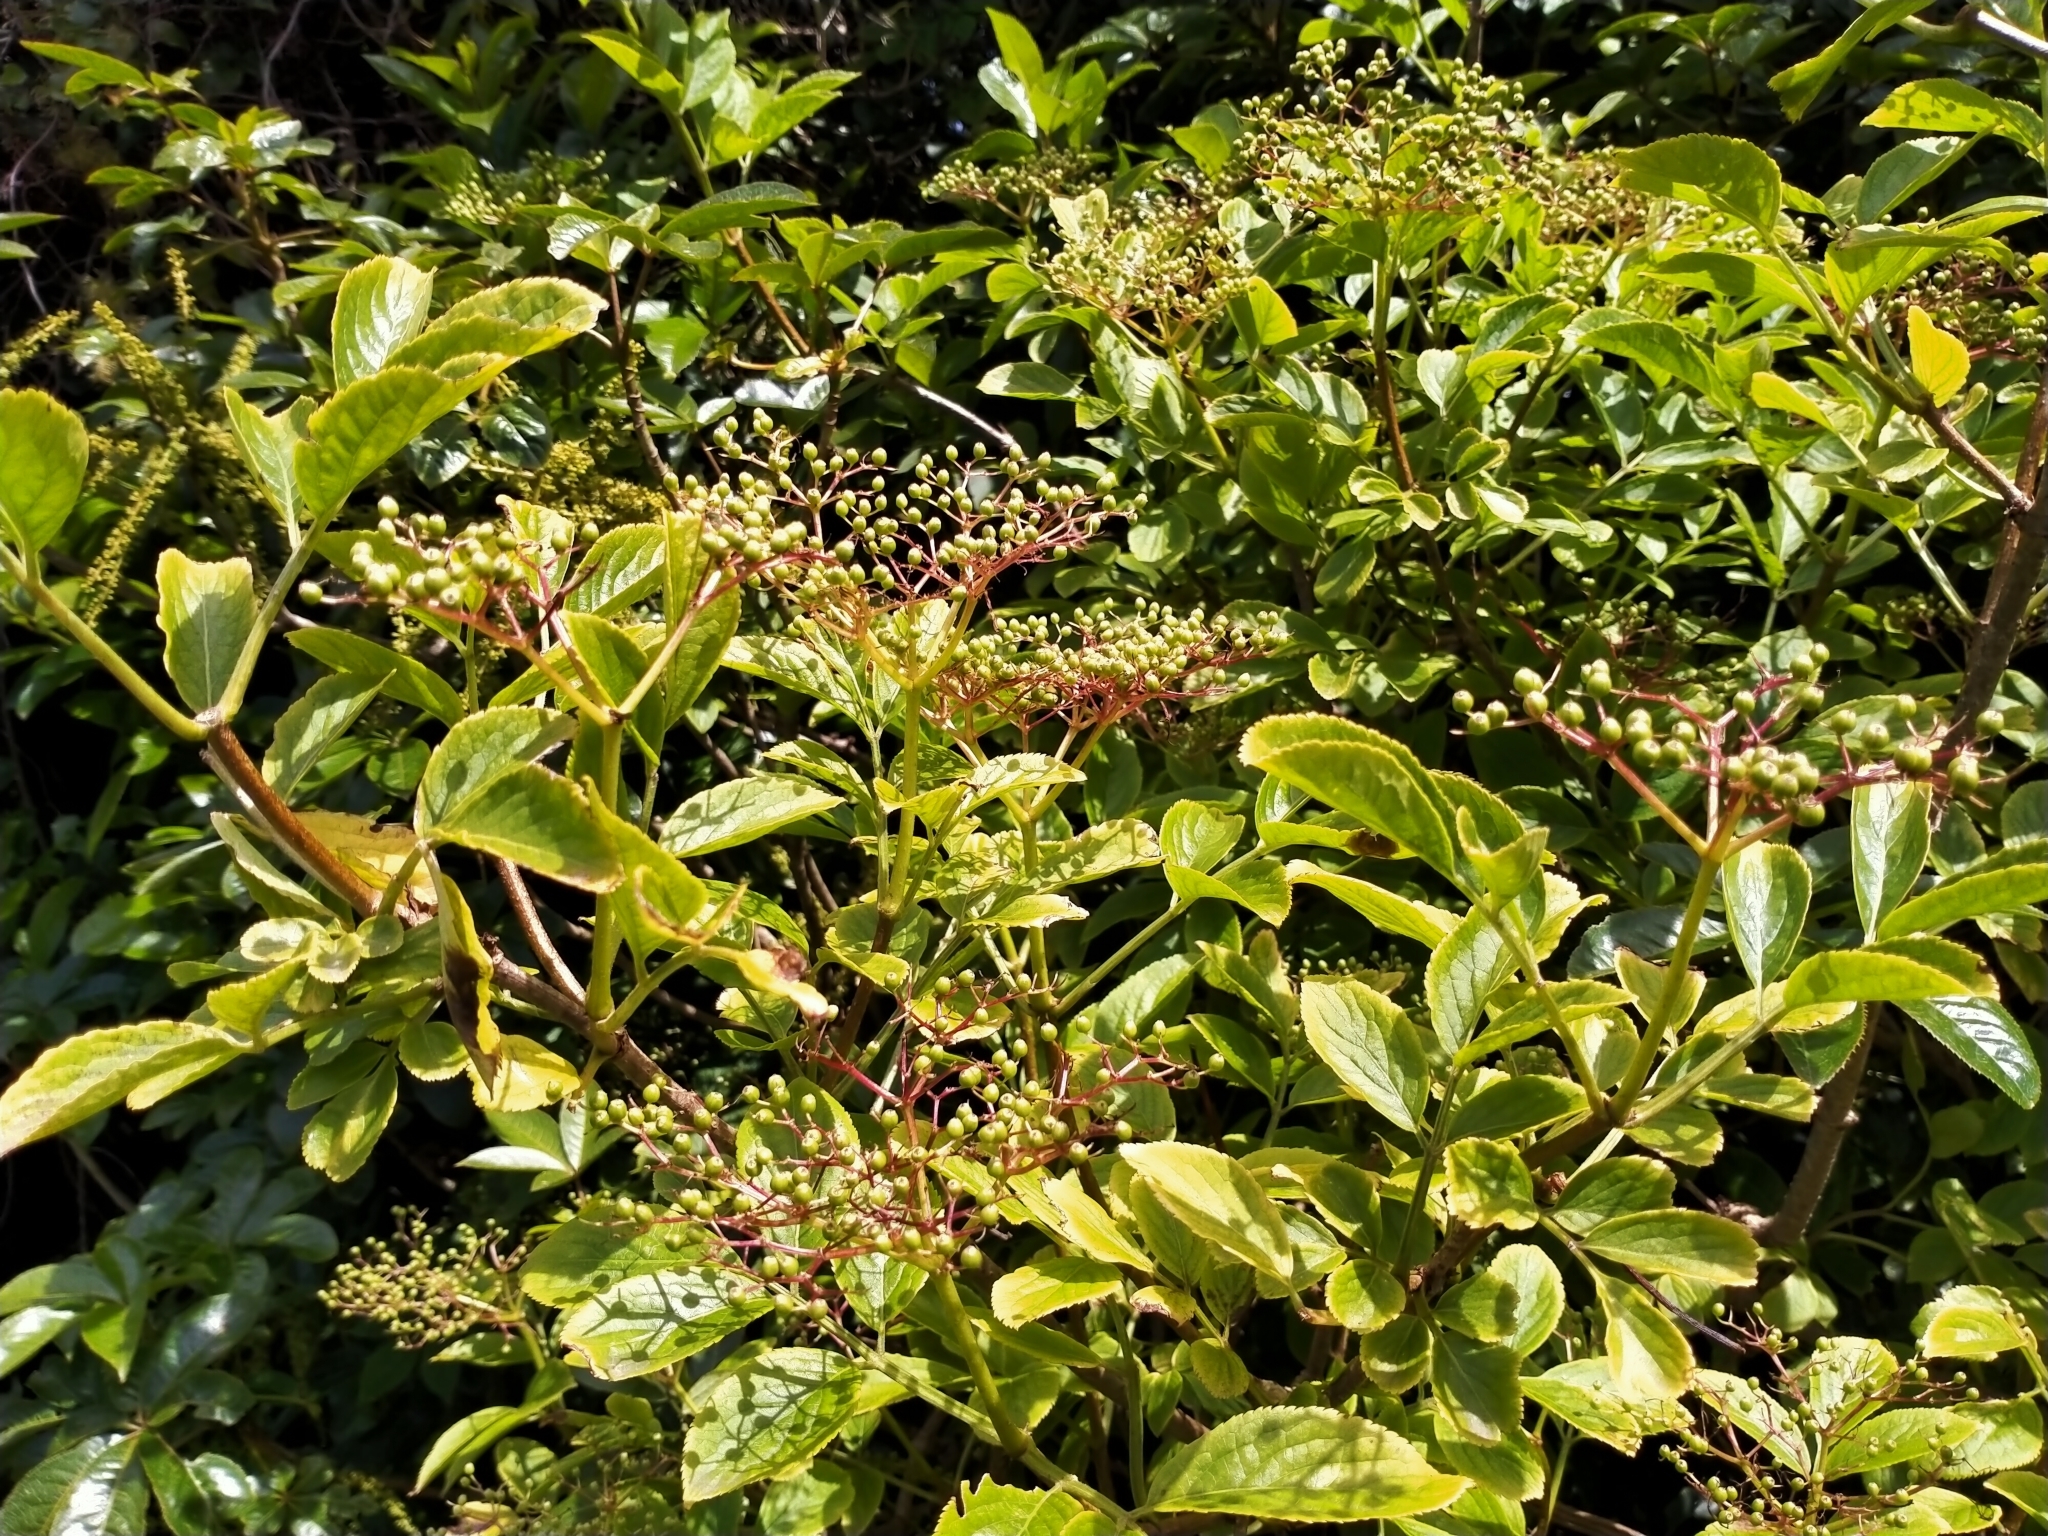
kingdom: Plantae
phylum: Tracheophyta
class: Magnoliopsida
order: Dipsacales
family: Viburnaceae
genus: Sambucus
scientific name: Sambucus nigra
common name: Elder
